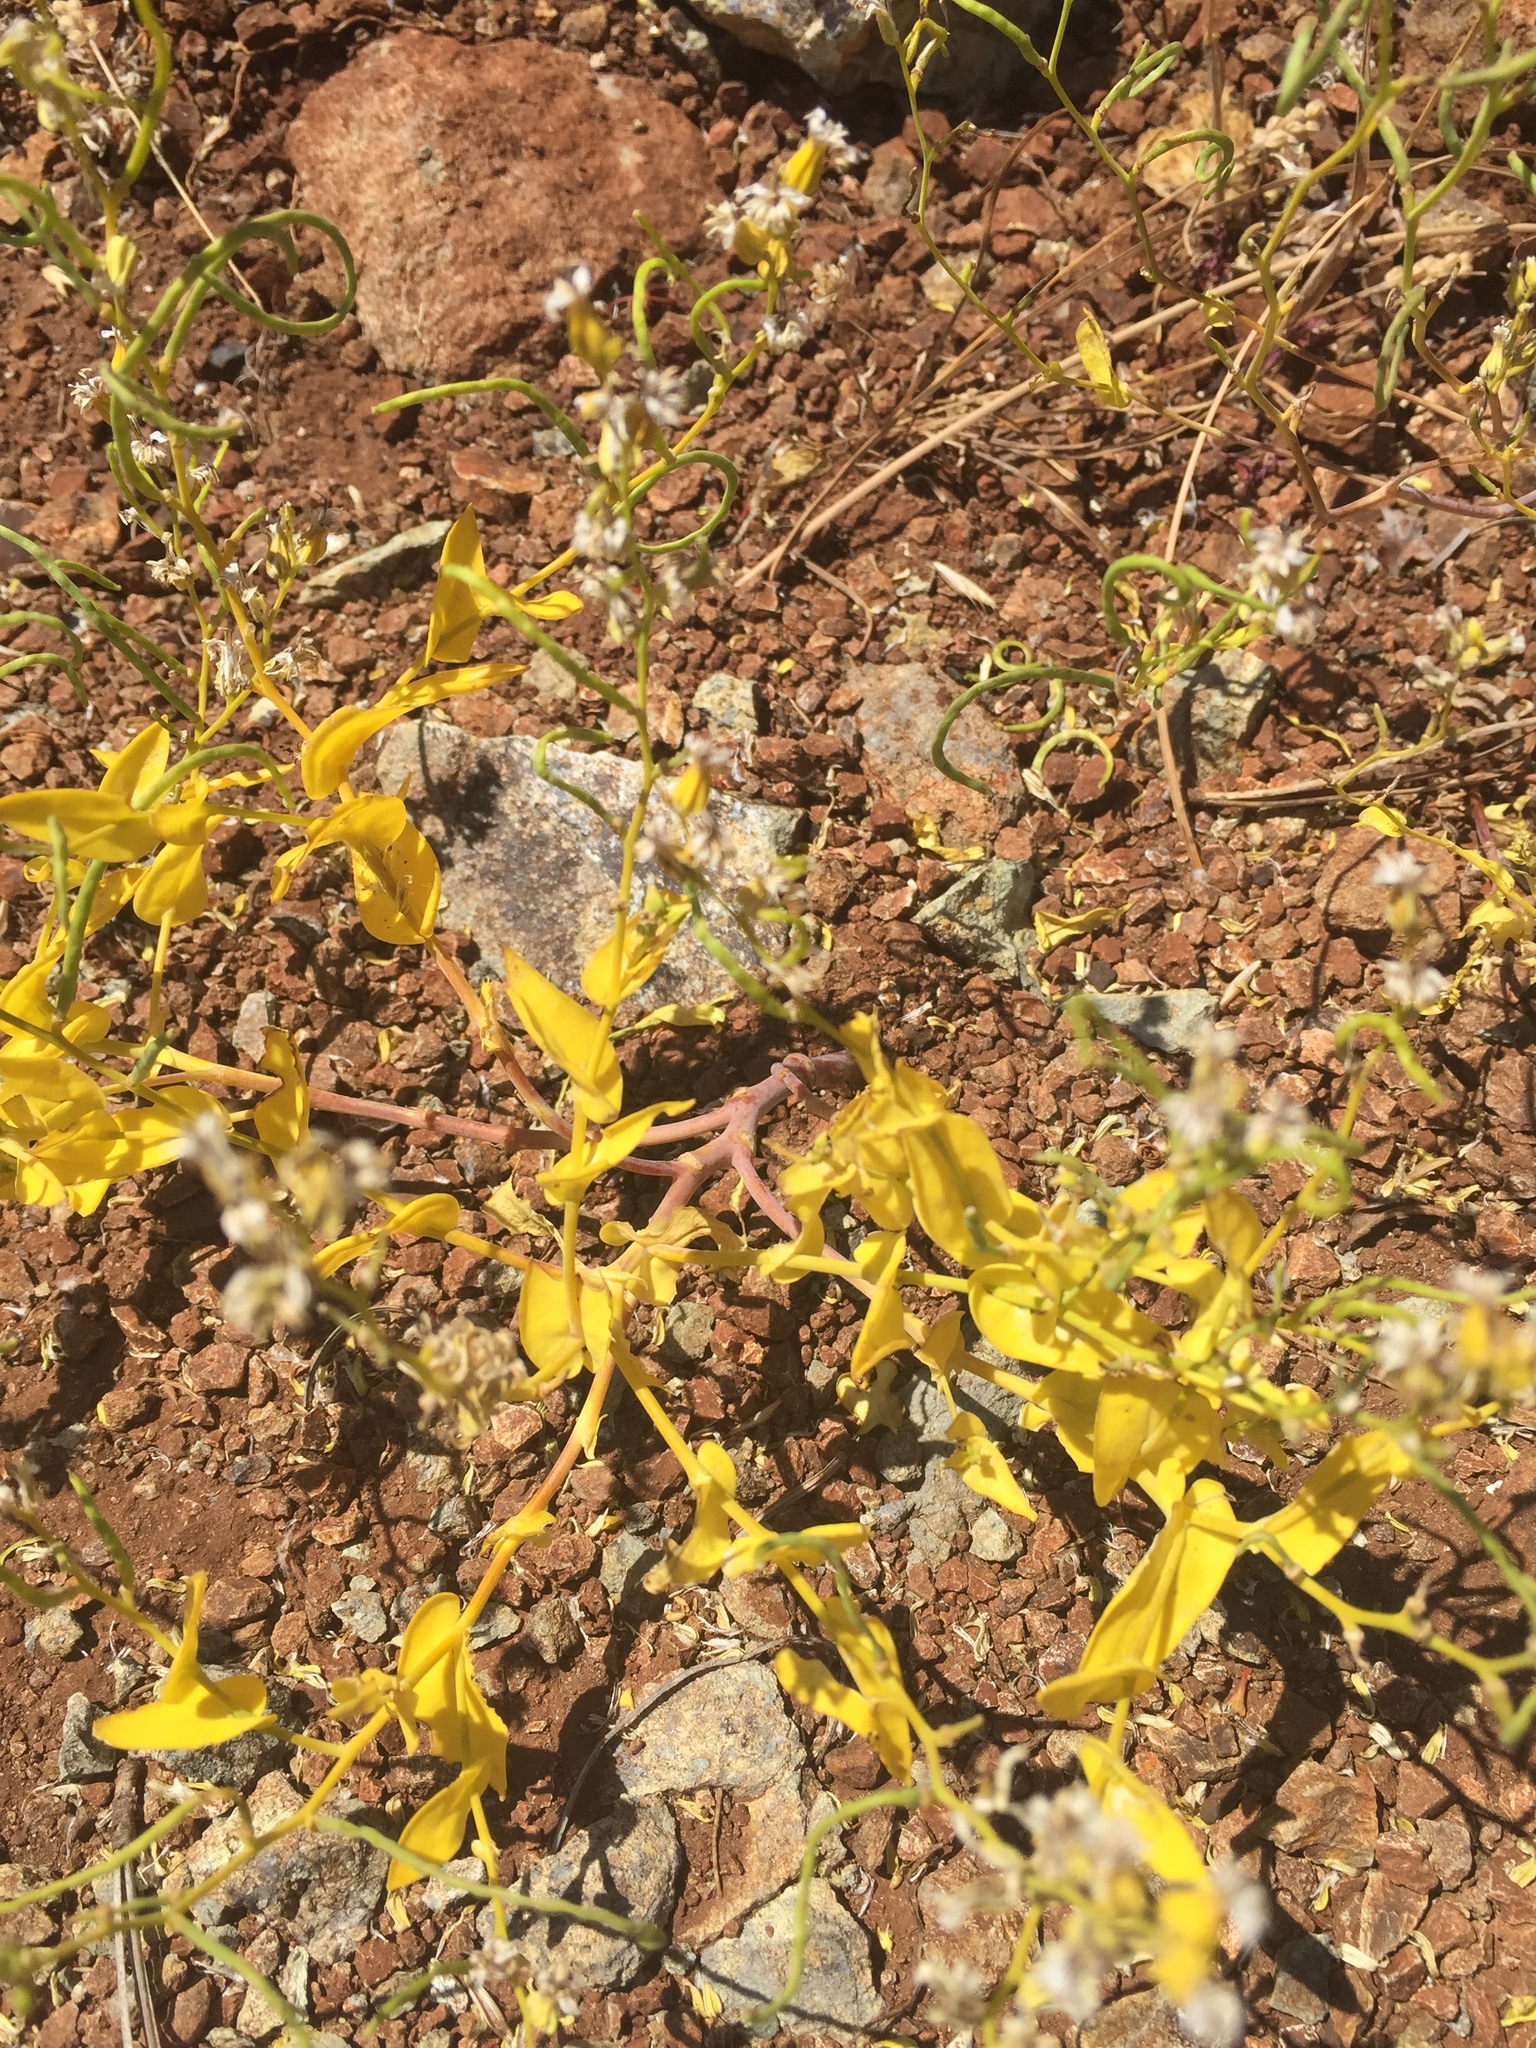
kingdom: Plantae
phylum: Tracheophyta
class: Magnoliopsida
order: Brassicales
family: Brassicaceae
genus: Streptanthus
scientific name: Streptanthus hesperidis
